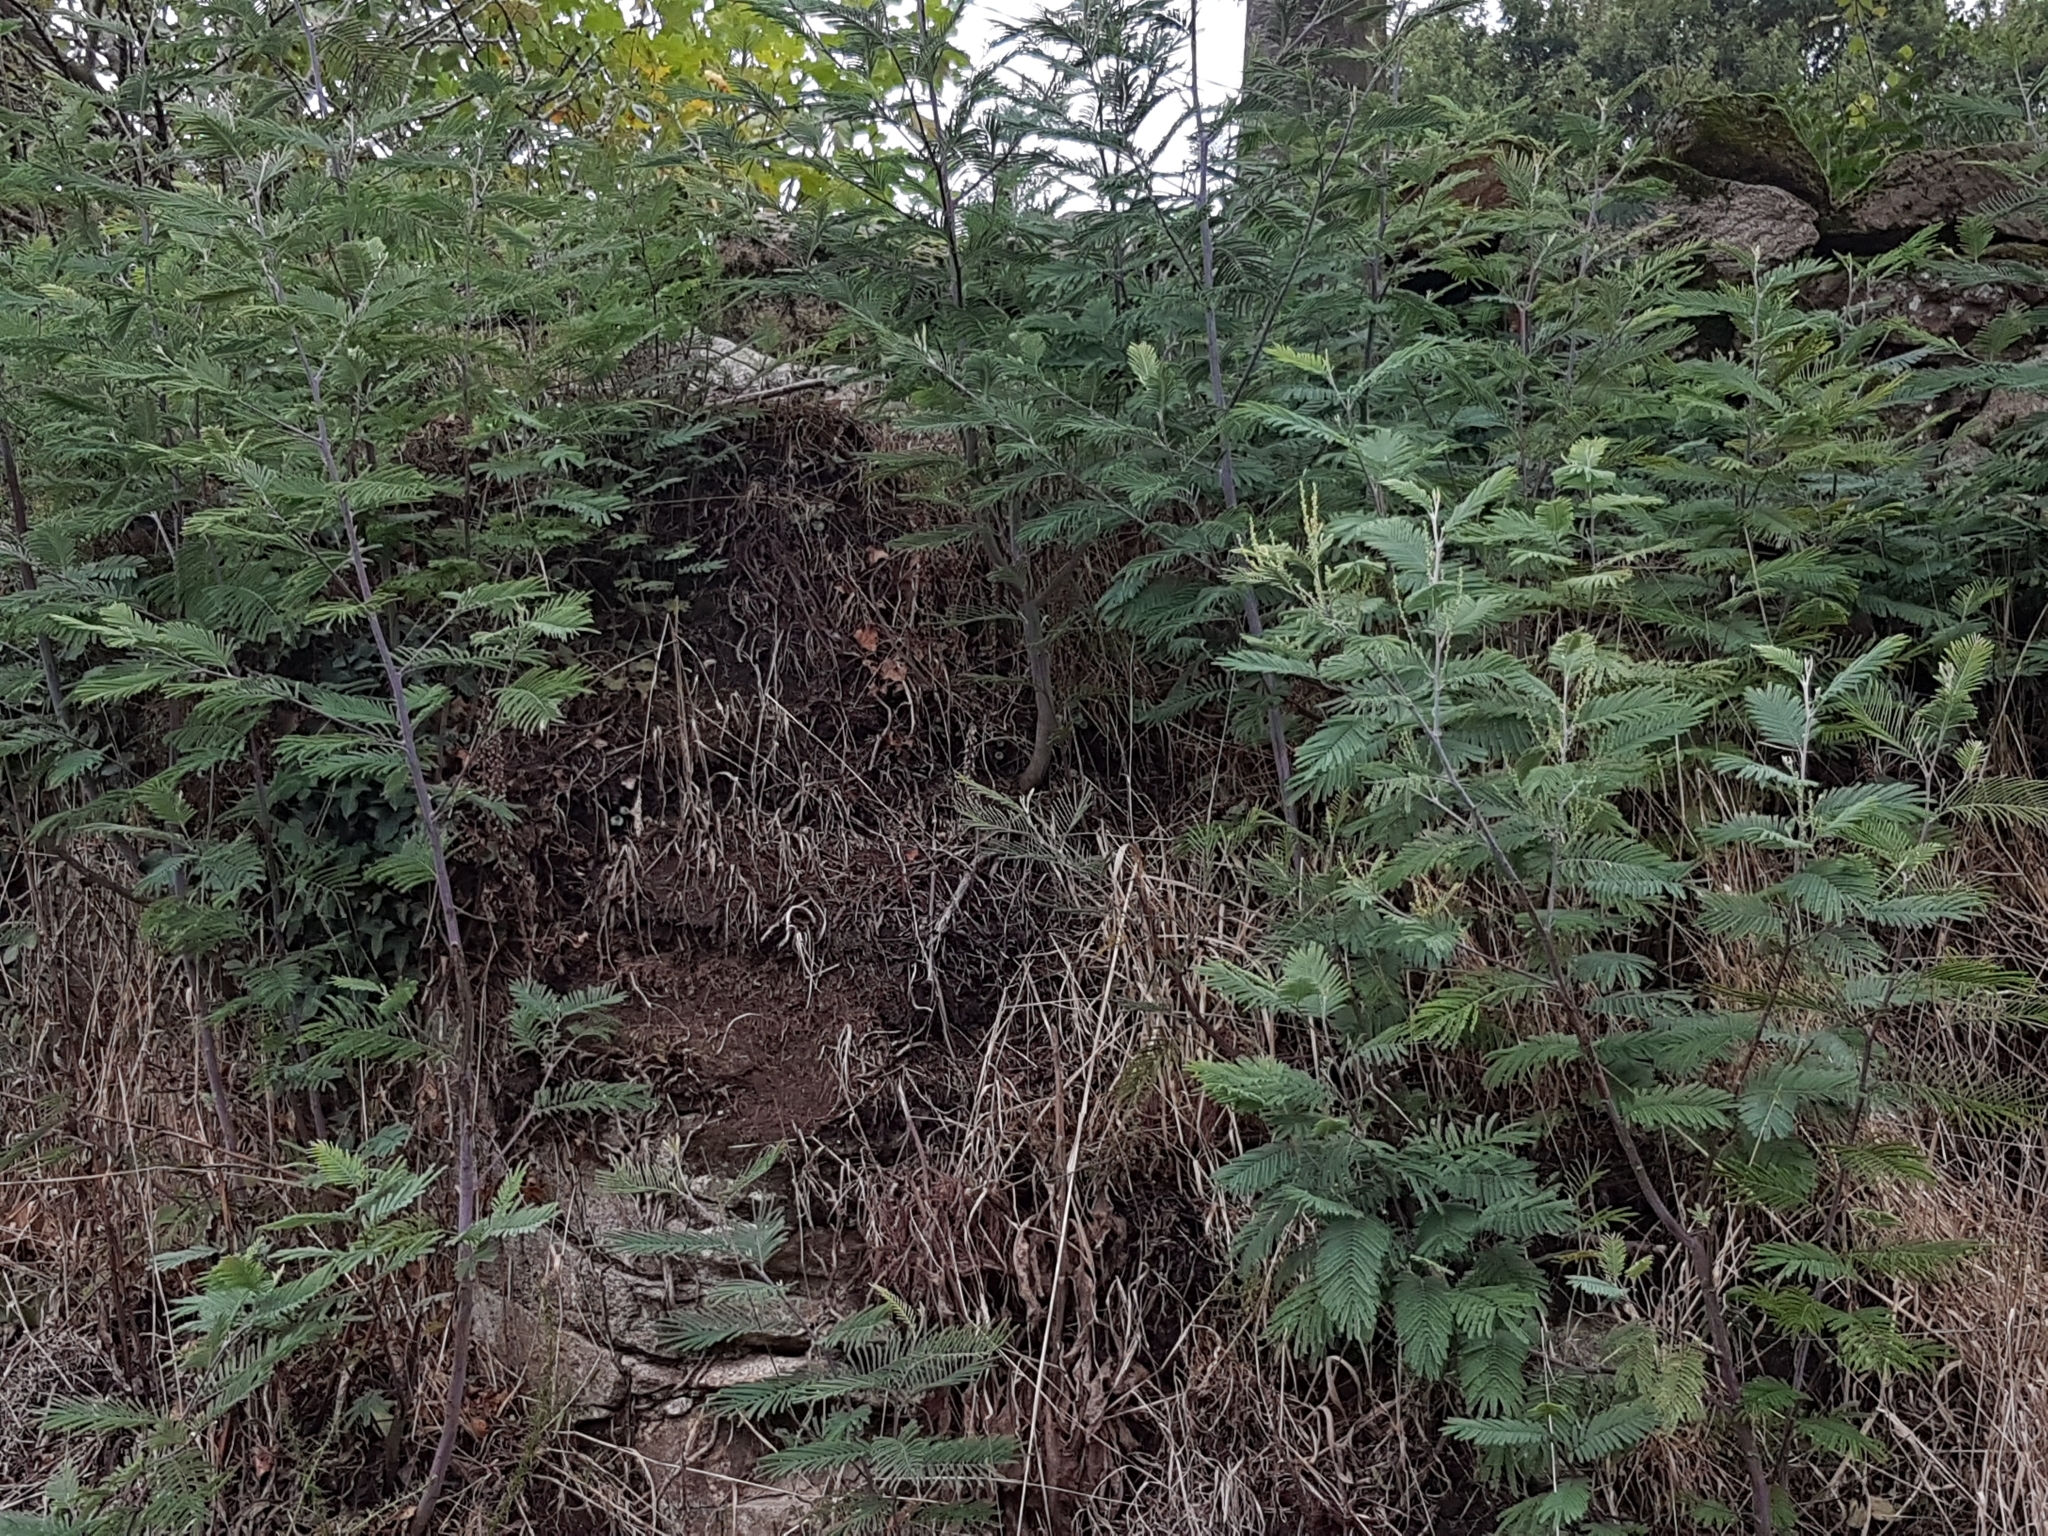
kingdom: Plantae
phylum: Tracheophyta
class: Magnoliopsida
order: Fabales
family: Fabaceae
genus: Acacia
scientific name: Acacia dealbata
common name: Silver wattle
